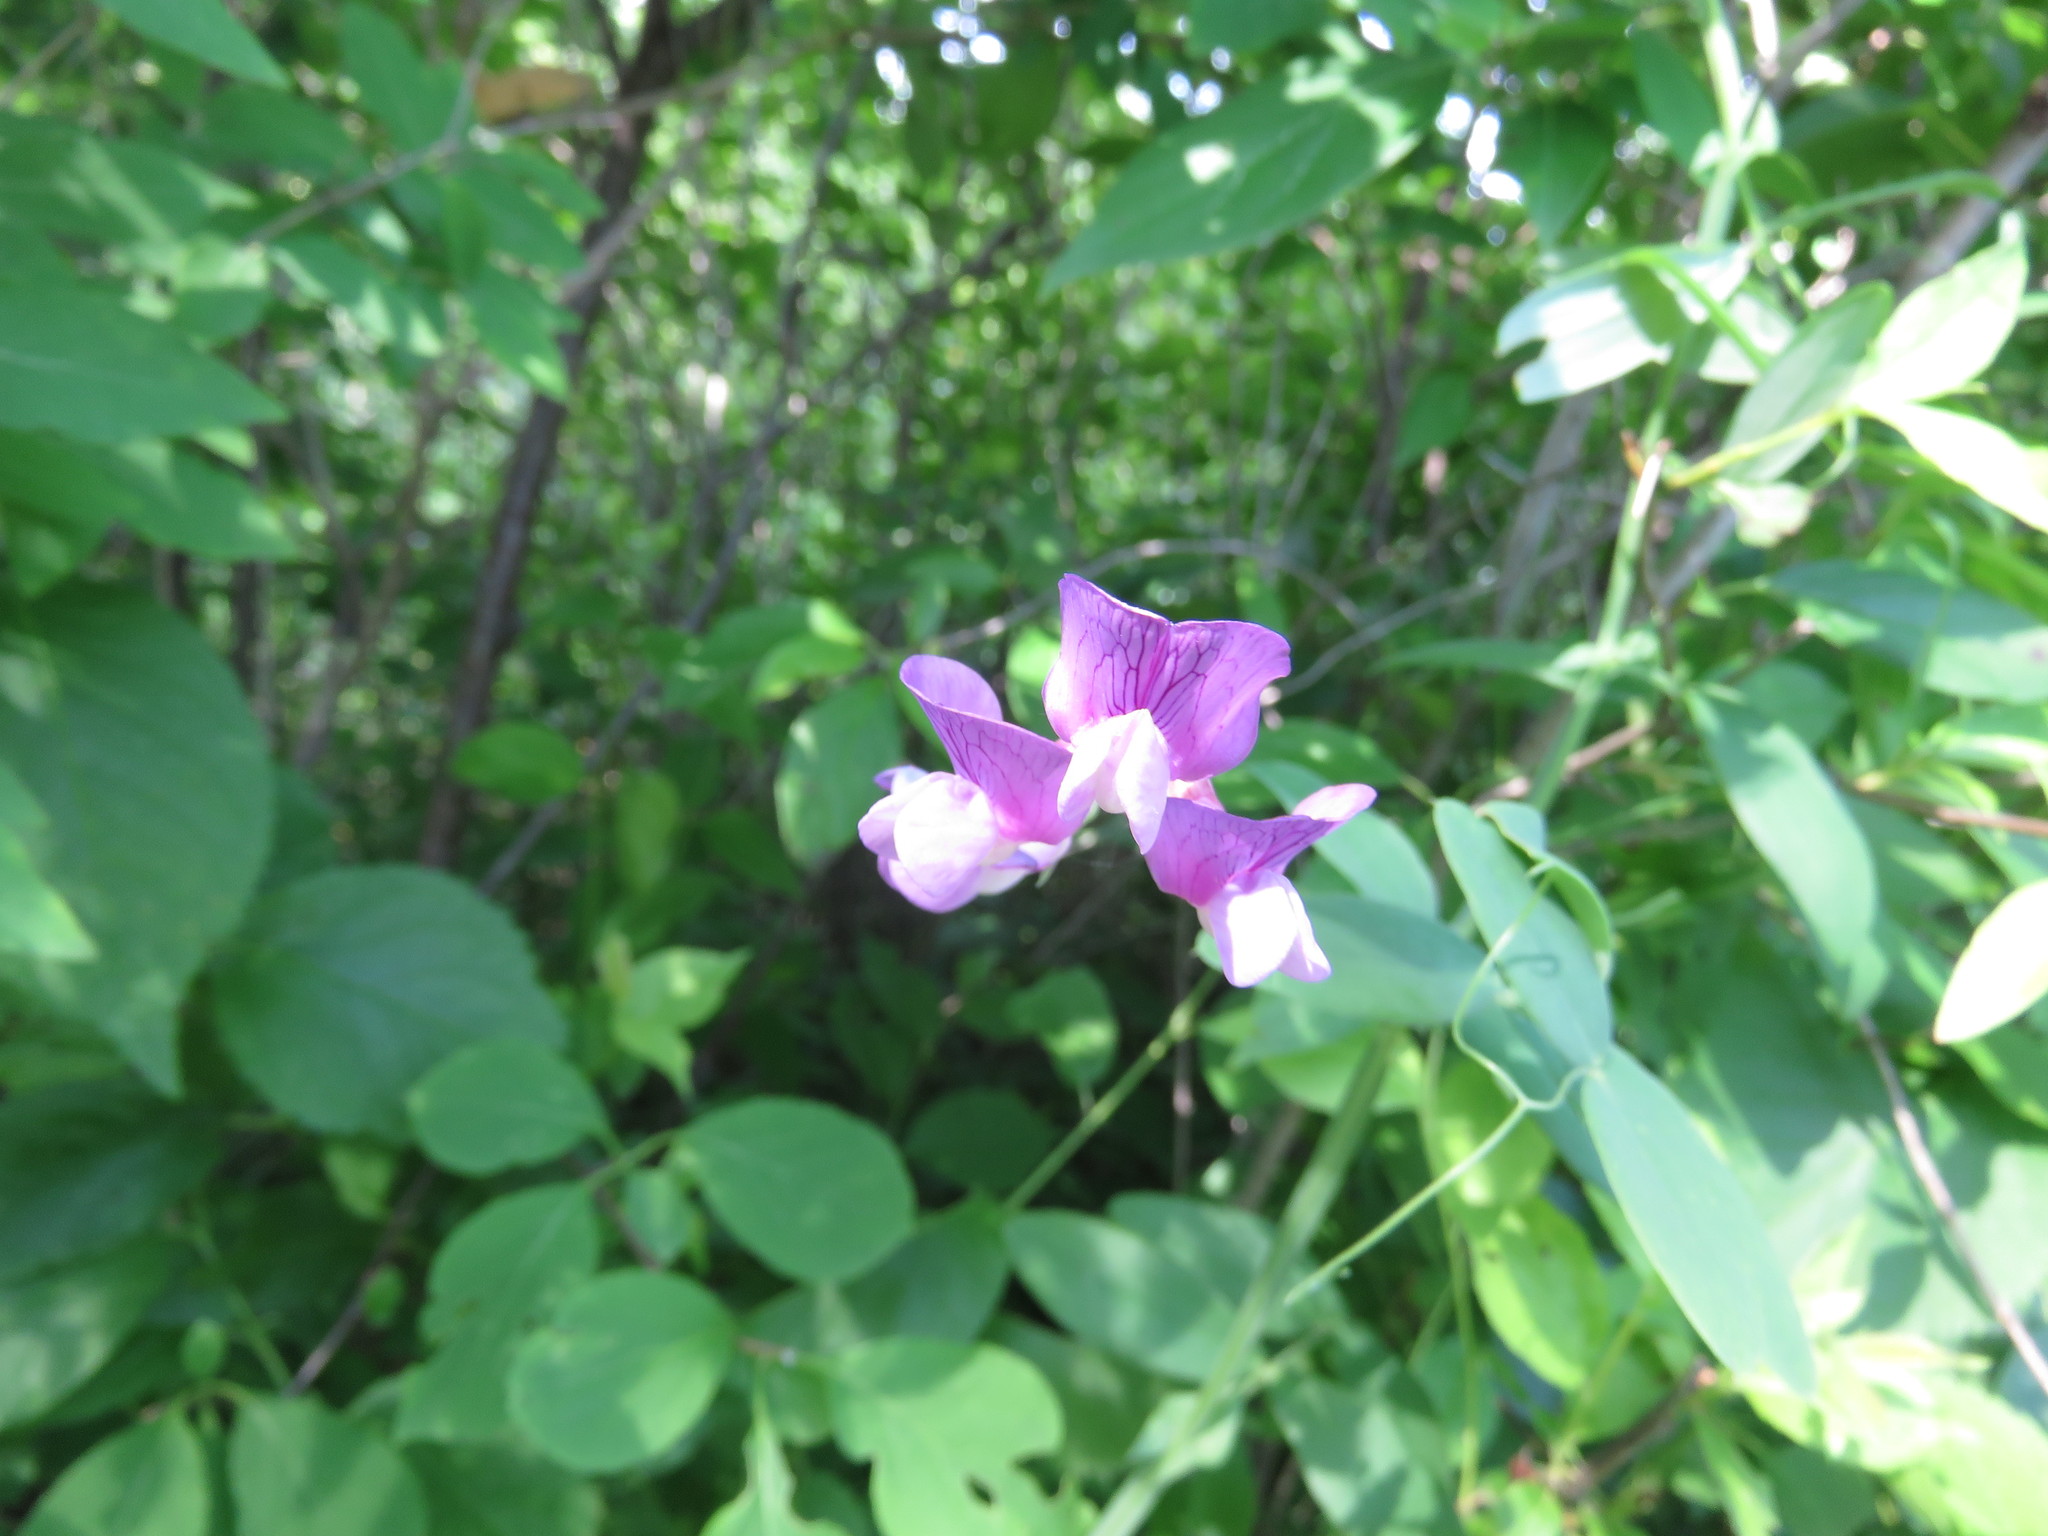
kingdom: Plantae
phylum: Tracheophyta
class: Magnoliopsida
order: Fabales
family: Fabaceae
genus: Lathyrus
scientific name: Lathyrus palustris
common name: Marsh pea
